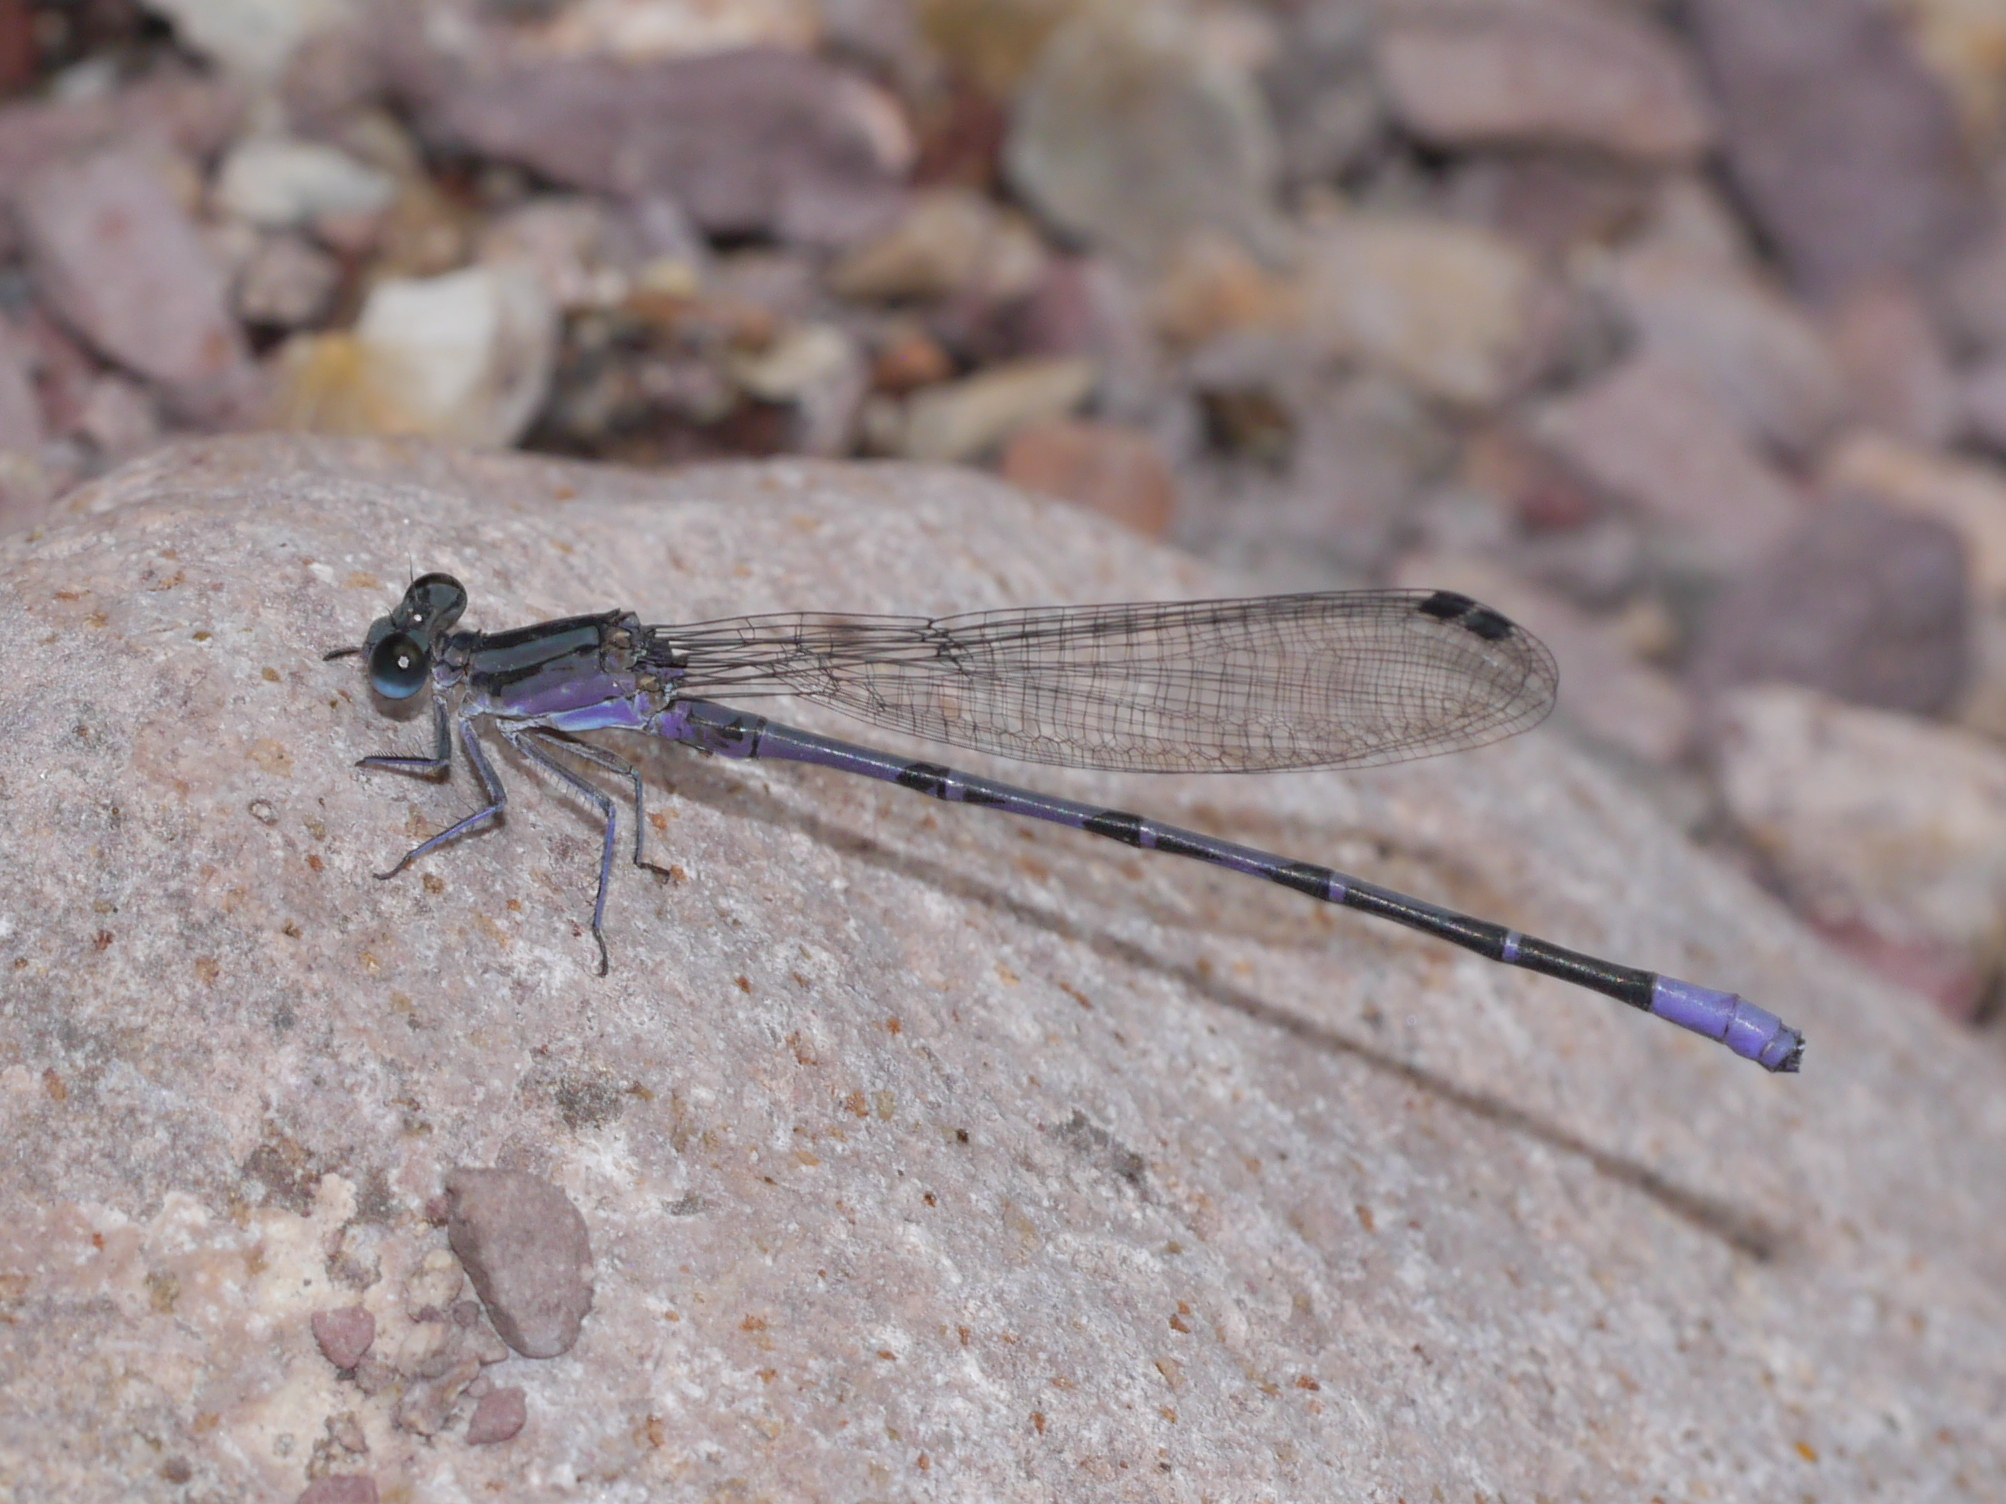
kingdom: Animalia
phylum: Arthropoda
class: Insecta
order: Odonata
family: Coenagrionidae
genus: Argia
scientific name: Argia funebris
